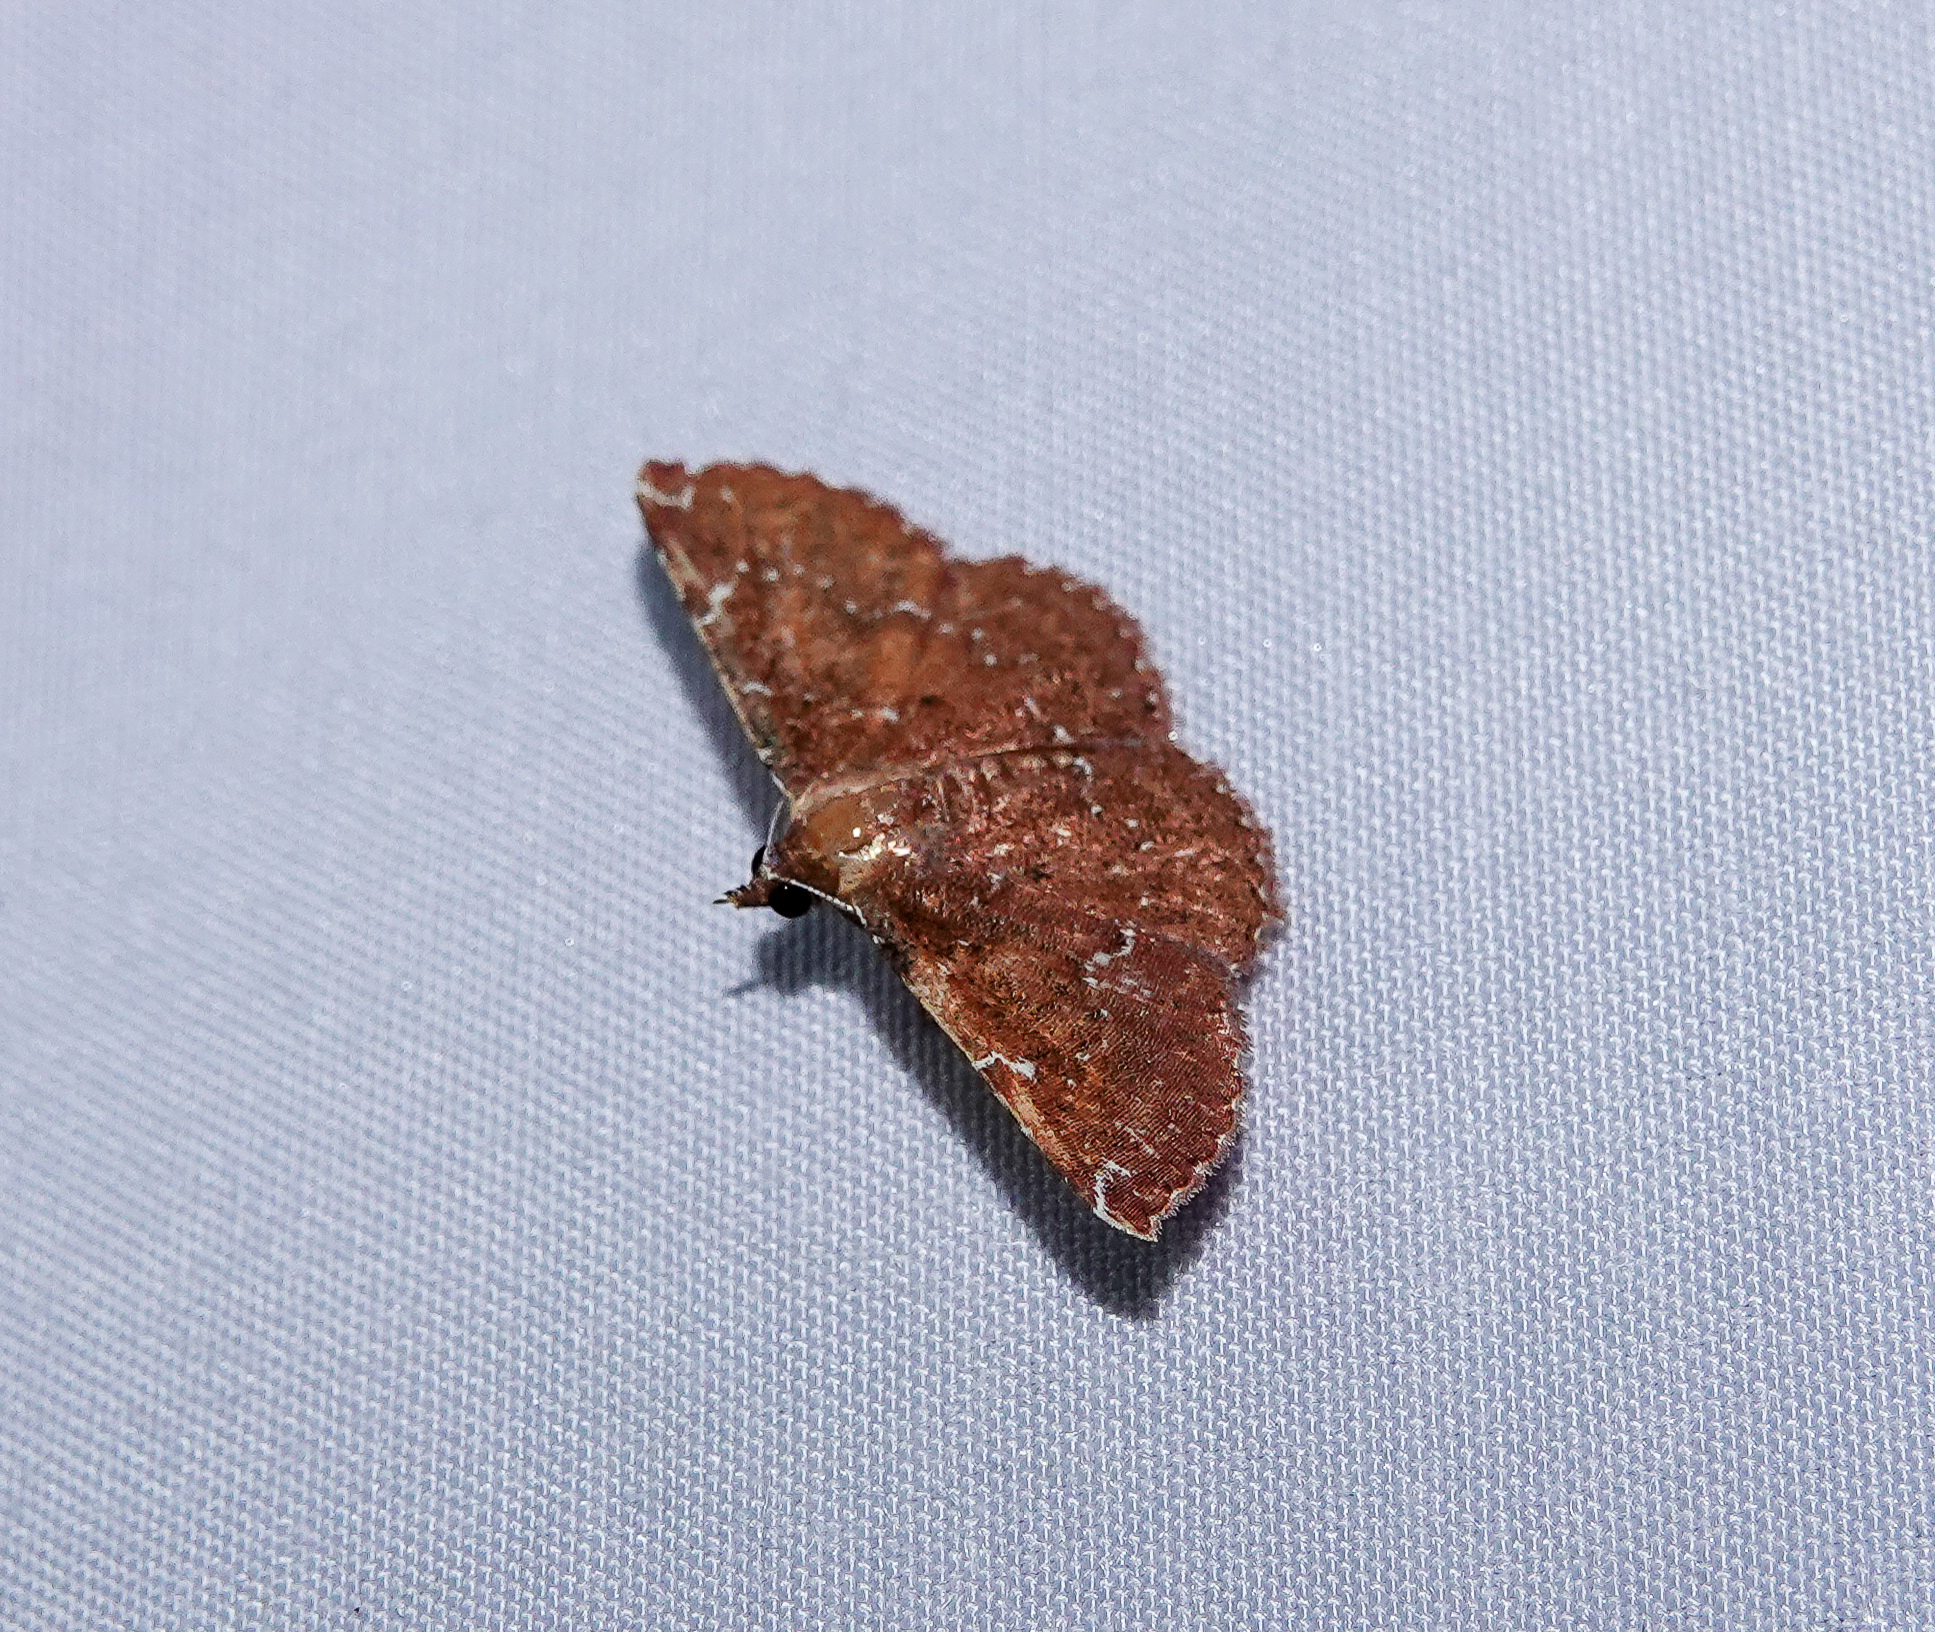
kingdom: Animalia
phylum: Arthropoda
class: Insecta
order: Lepidoptera
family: Noctuidae
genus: Cerynea
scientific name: Cerynea punctilinealis
